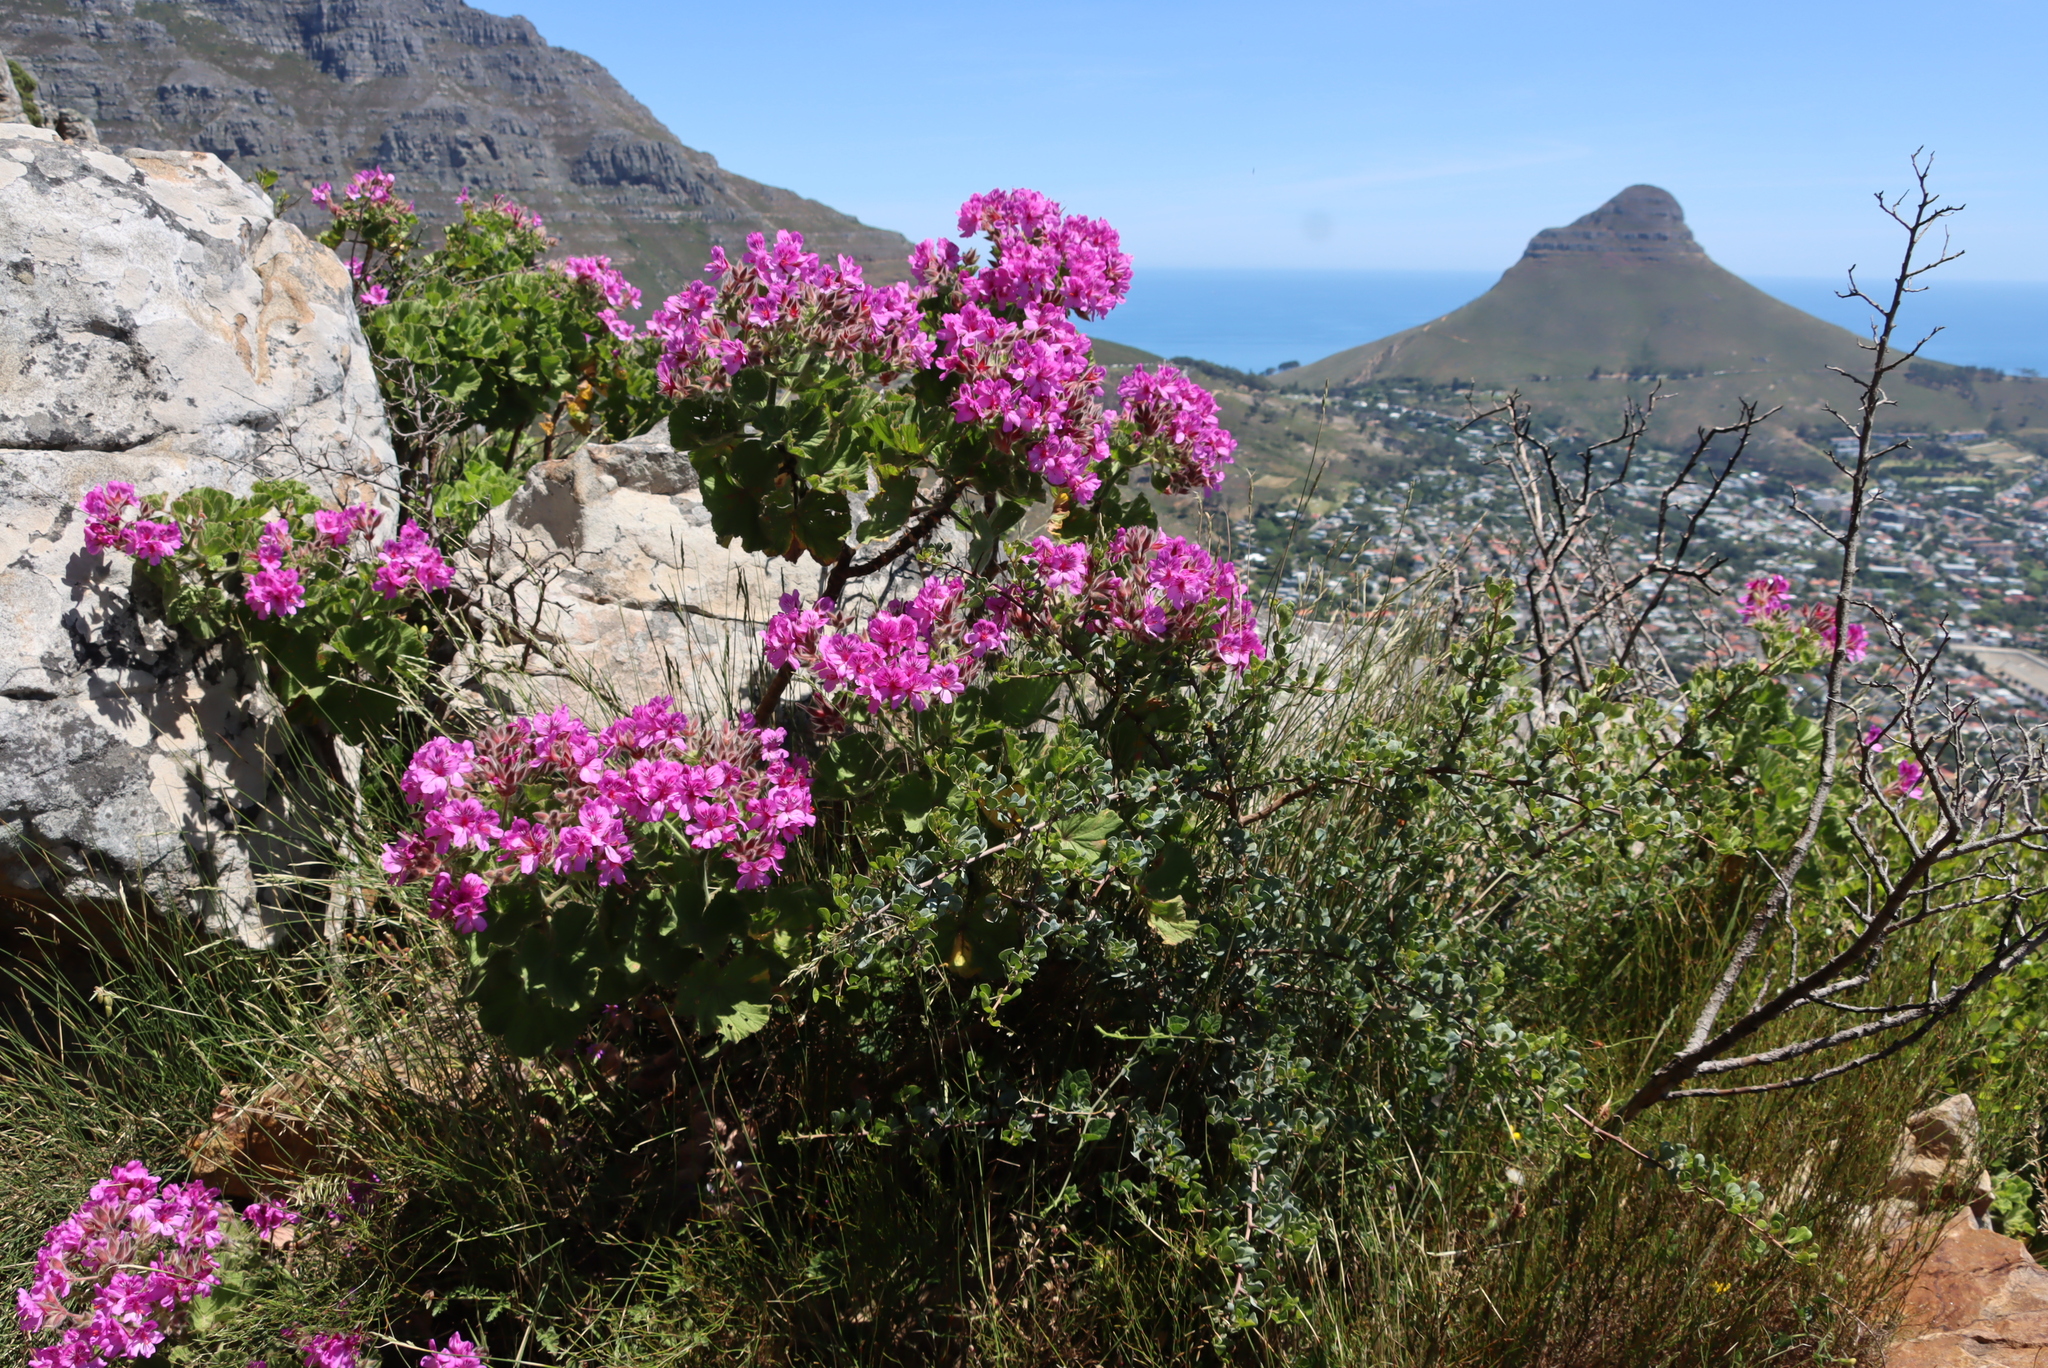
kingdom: Plantae
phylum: Tracheophyta
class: Magnoliopsida
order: Geraniales
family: Geraniaceae
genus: Pelargonium
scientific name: Pelargonium cucullatum
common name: Tree pelargonium
